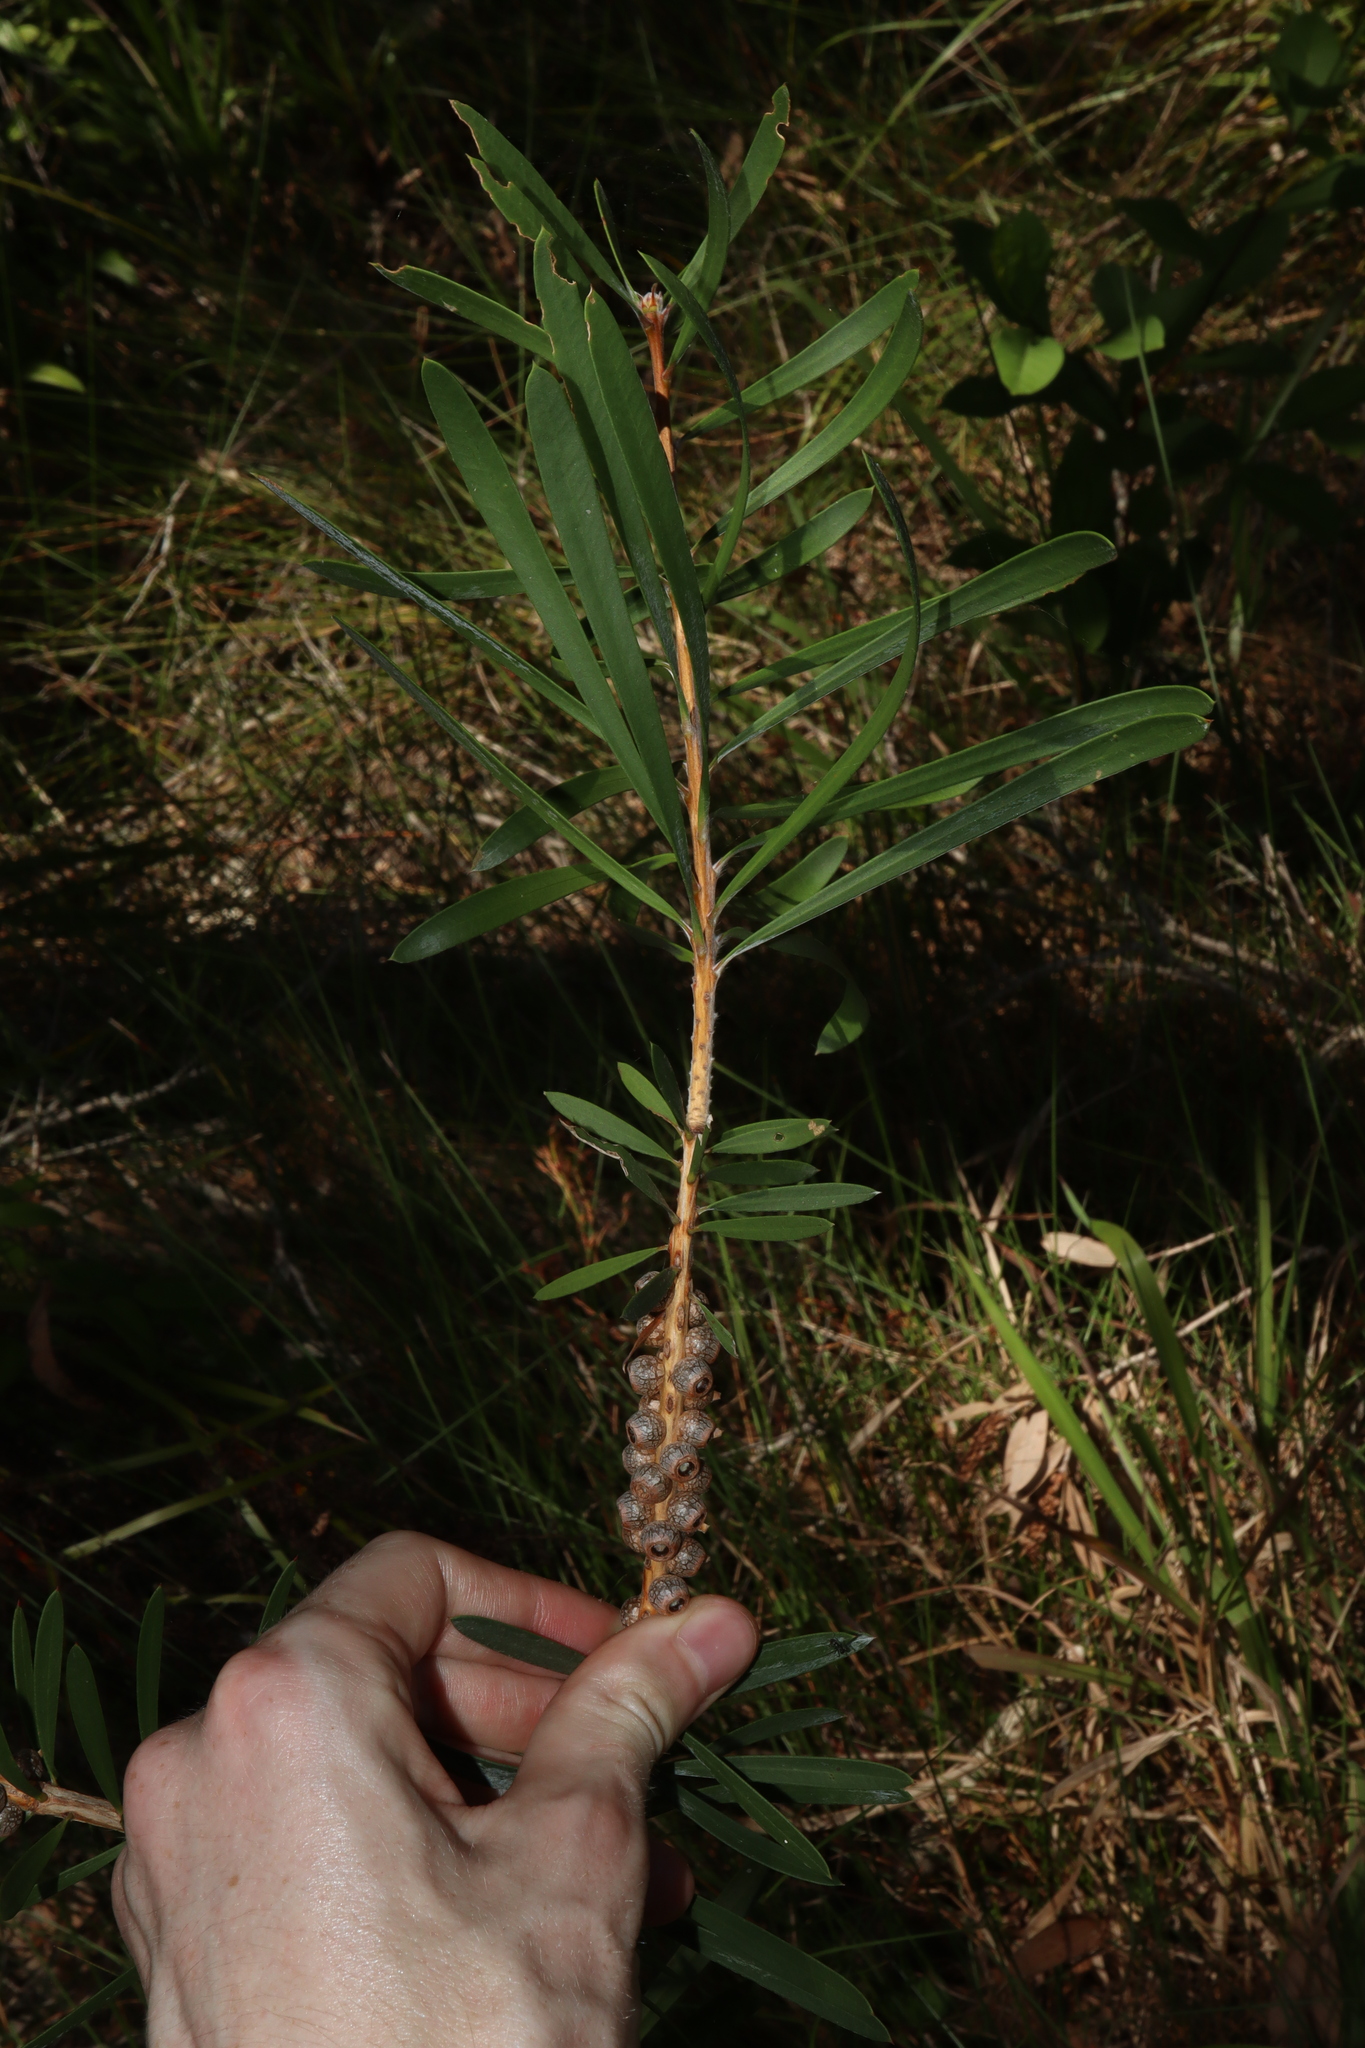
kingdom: Plantae
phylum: Tracheophyta
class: Magnoliopsida
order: Myrtales
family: Myrtaceae
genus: Callistemon
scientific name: Callistemon pachyphyllus
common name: Wallum bottlebrush
